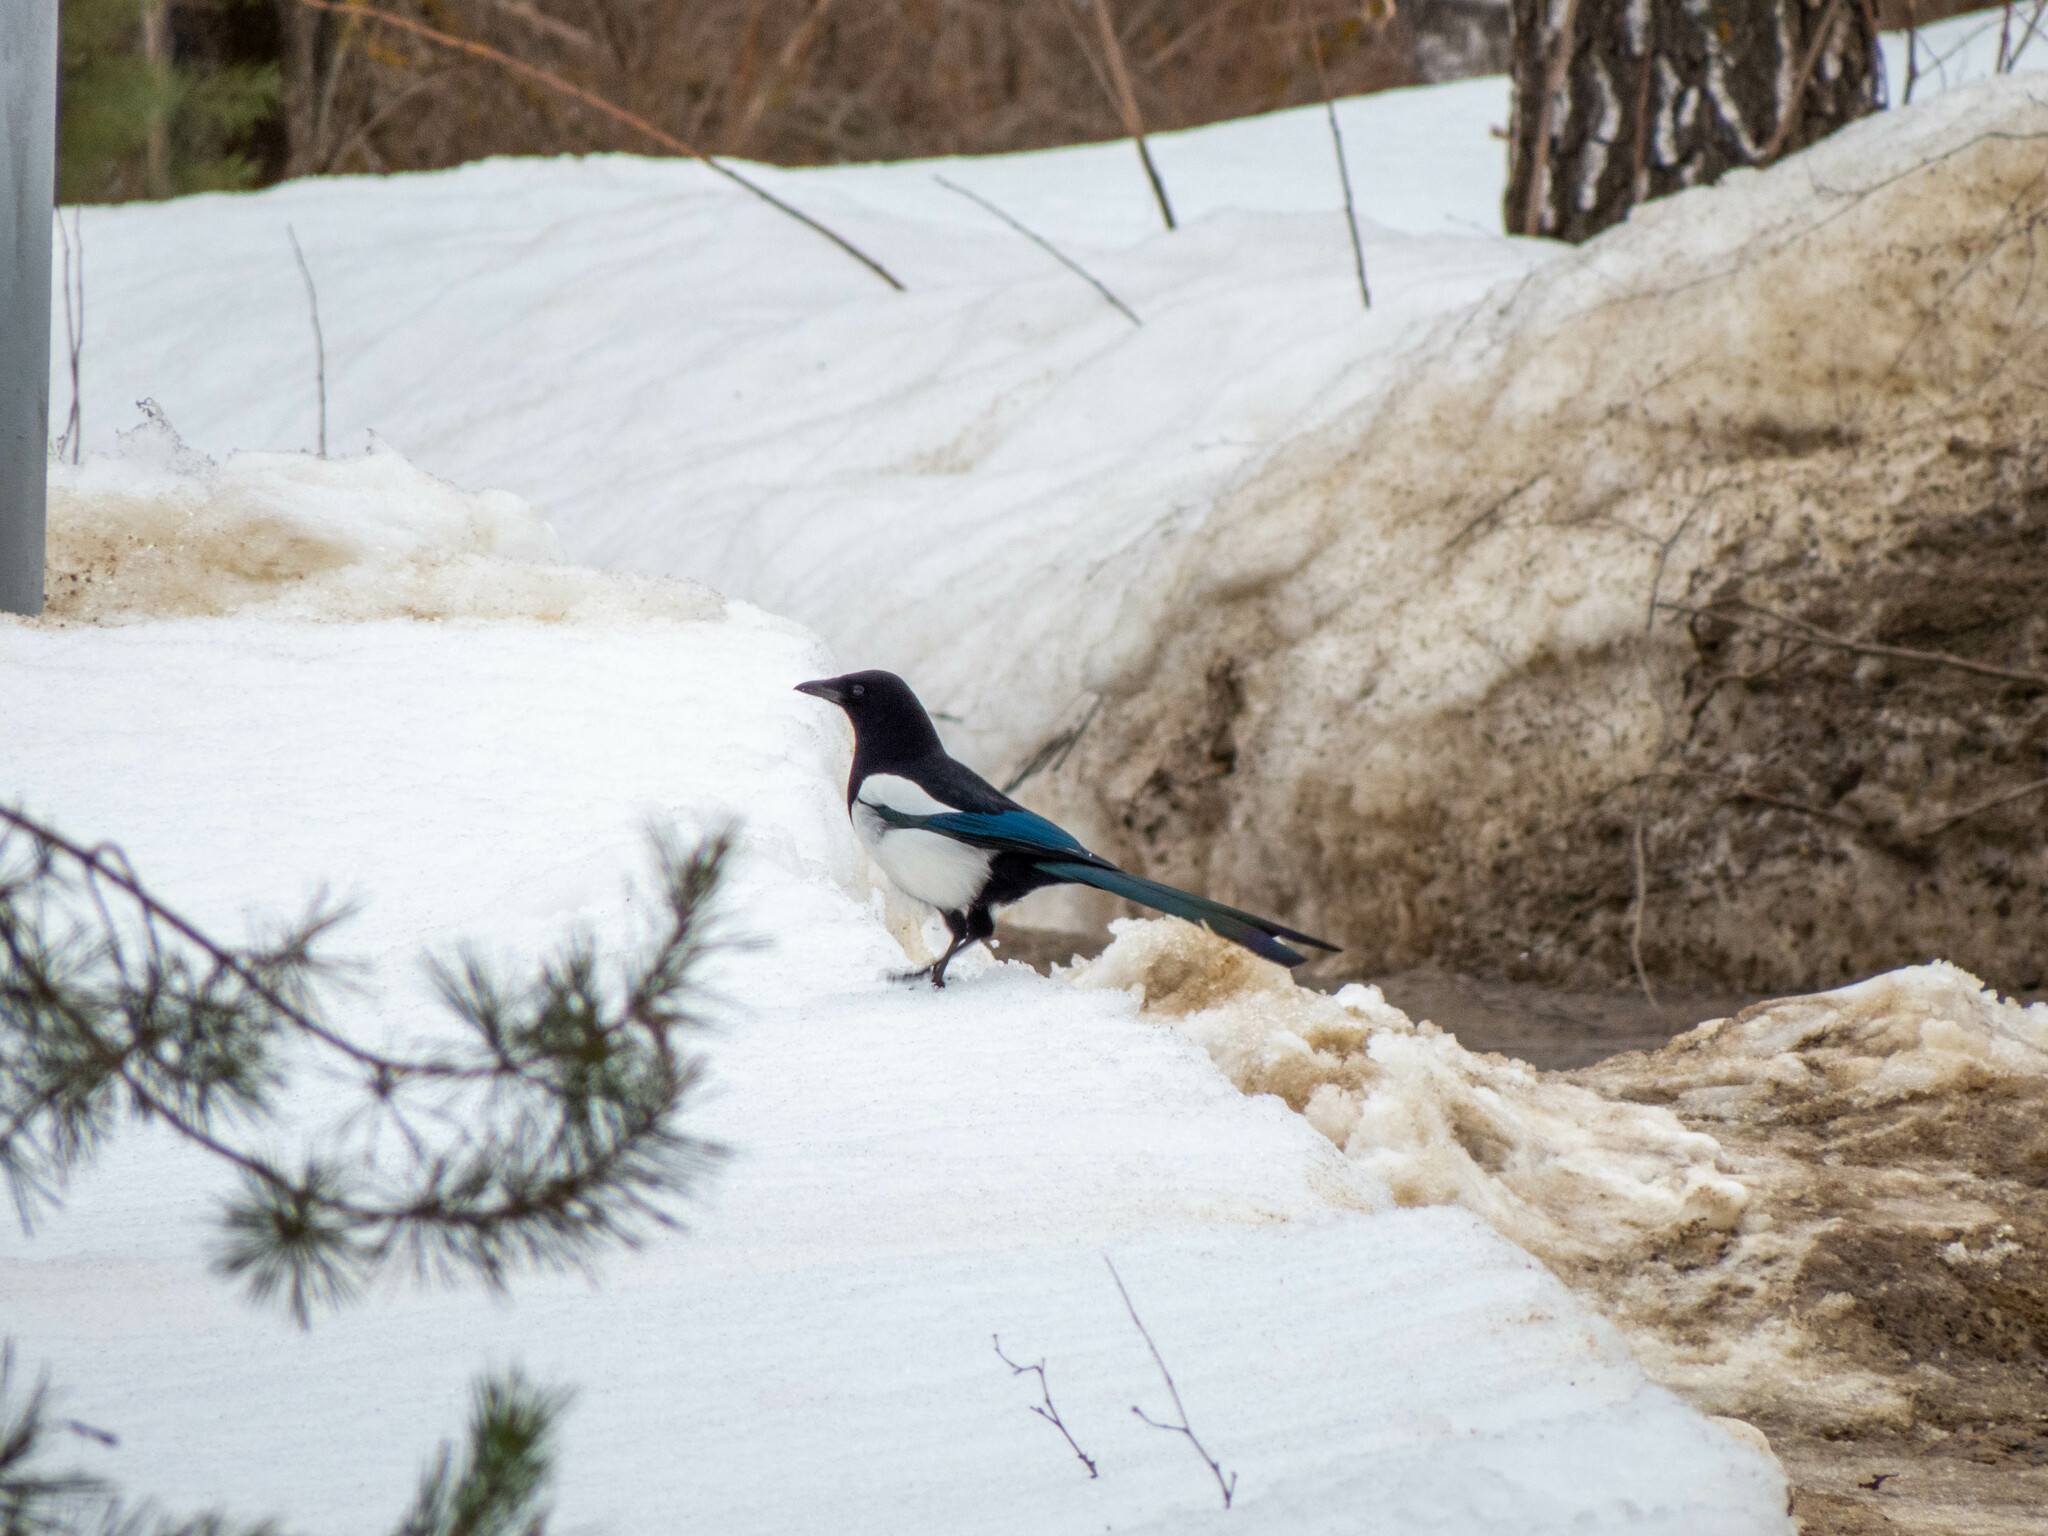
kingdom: Animalia
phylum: Chordata
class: Aves
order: Passeriformes
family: Corvidae
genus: Pica
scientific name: Pica pica
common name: Eurasian magpie
